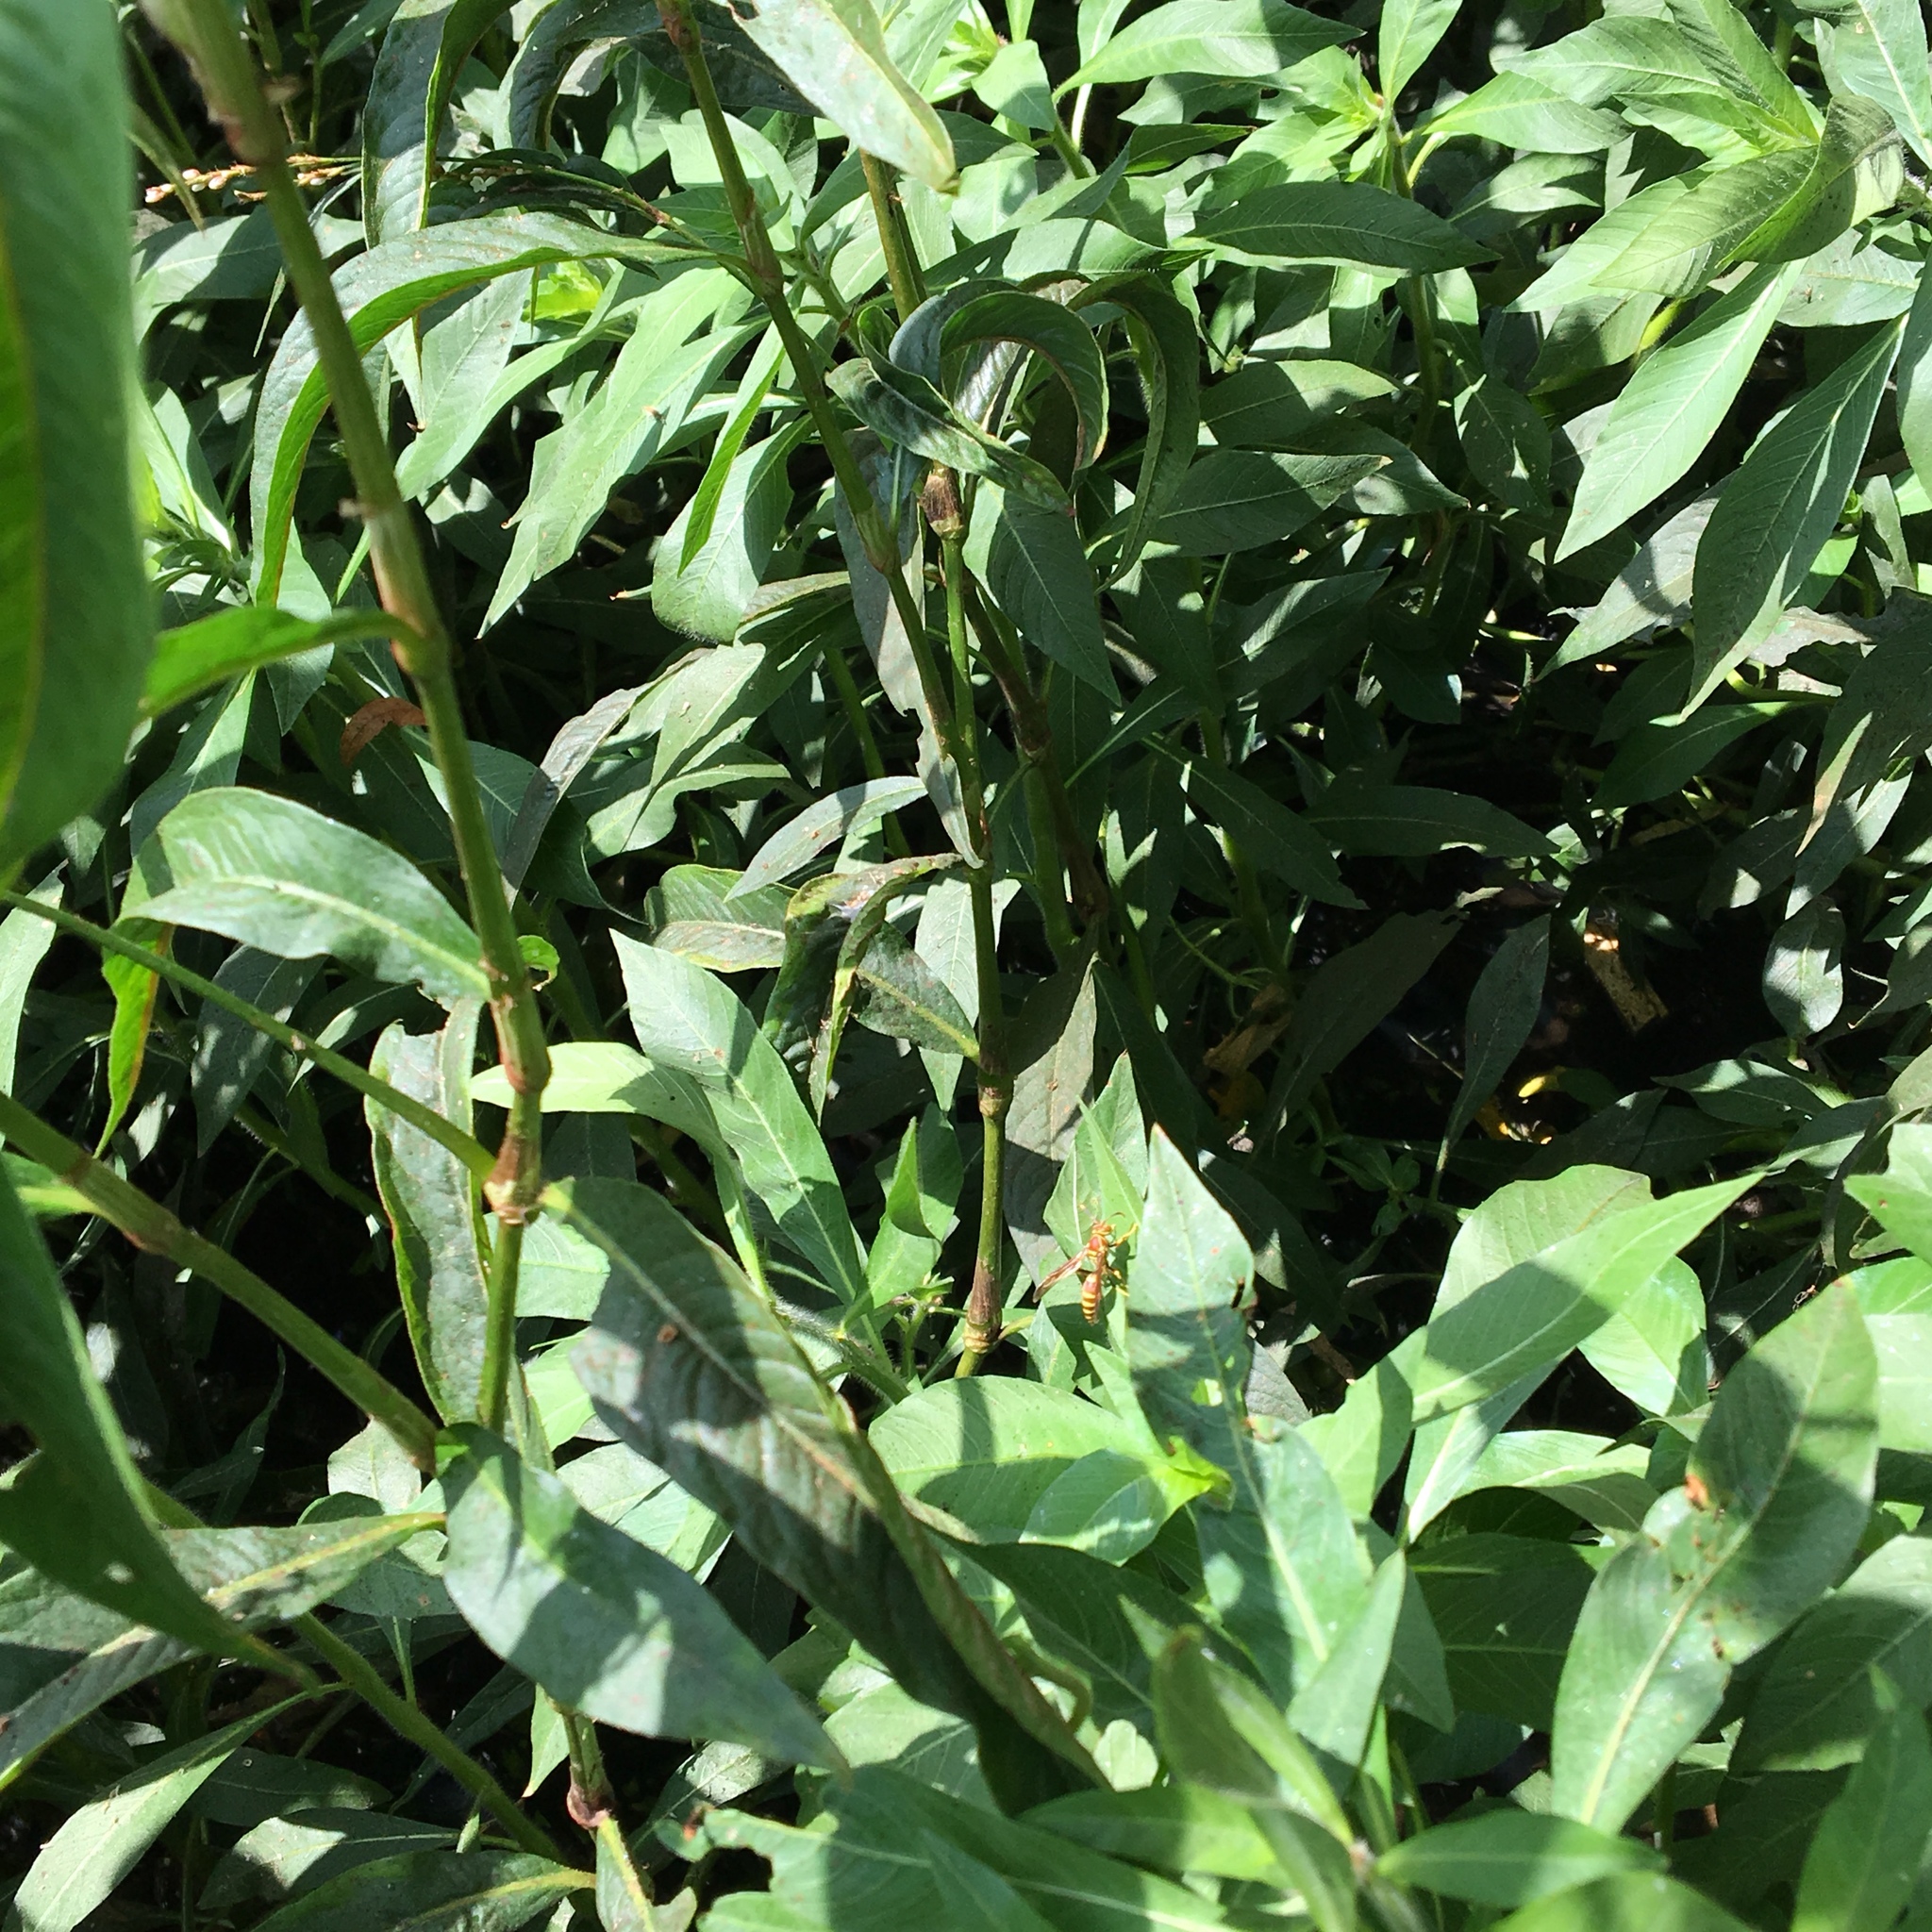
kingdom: Animalia
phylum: Arthropoda
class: Insecta
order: Hymenoptera
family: Eumenidae
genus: Polistes
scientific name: Polistes exclamans
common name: Paper wasp
